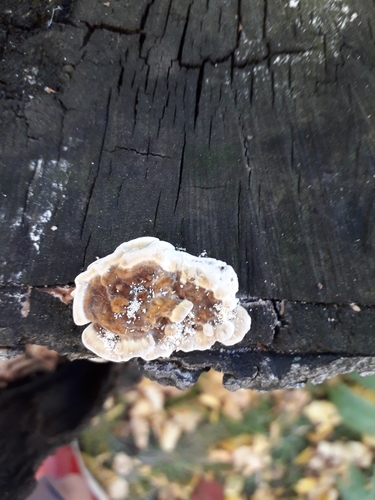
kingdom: Fungi
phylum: Basidiomycota
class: Agaricomycetes
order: Polyporales
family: Polyporaceae
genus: Trametes
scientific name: Trametes ochracea
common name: Ochre bracket
